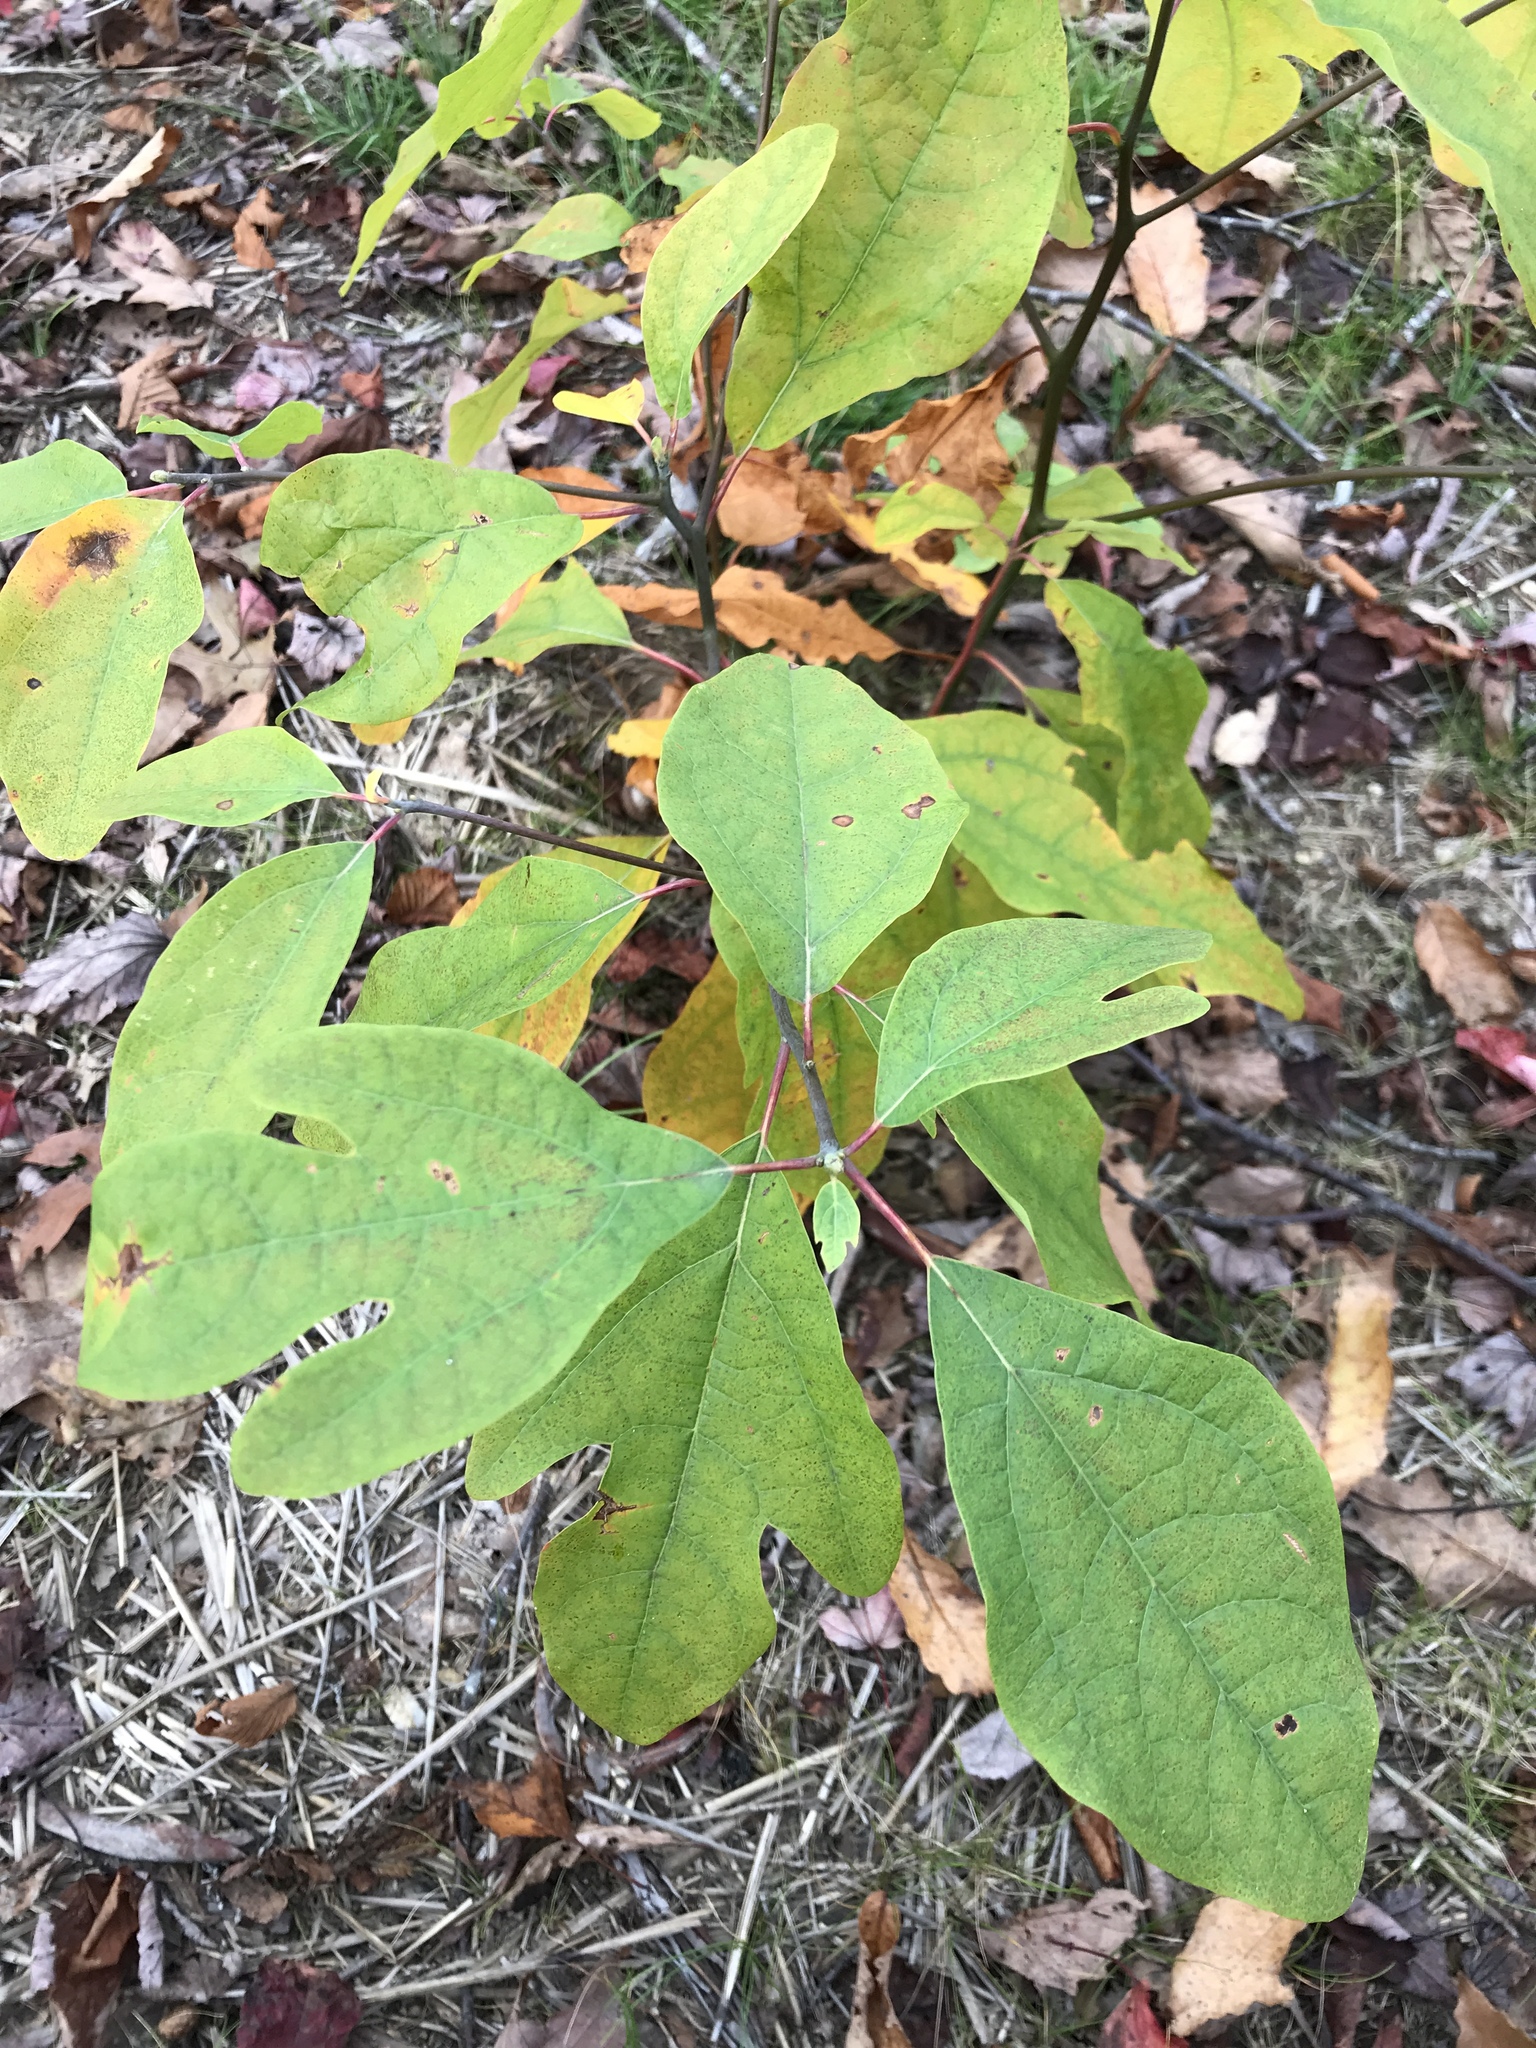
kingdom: Plantae
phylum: Tracheophyta
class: Magnoliopsida
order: Laurales
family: Lauraceae
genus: Sassafras
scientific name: Sassafras albidum
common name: Sassafras
